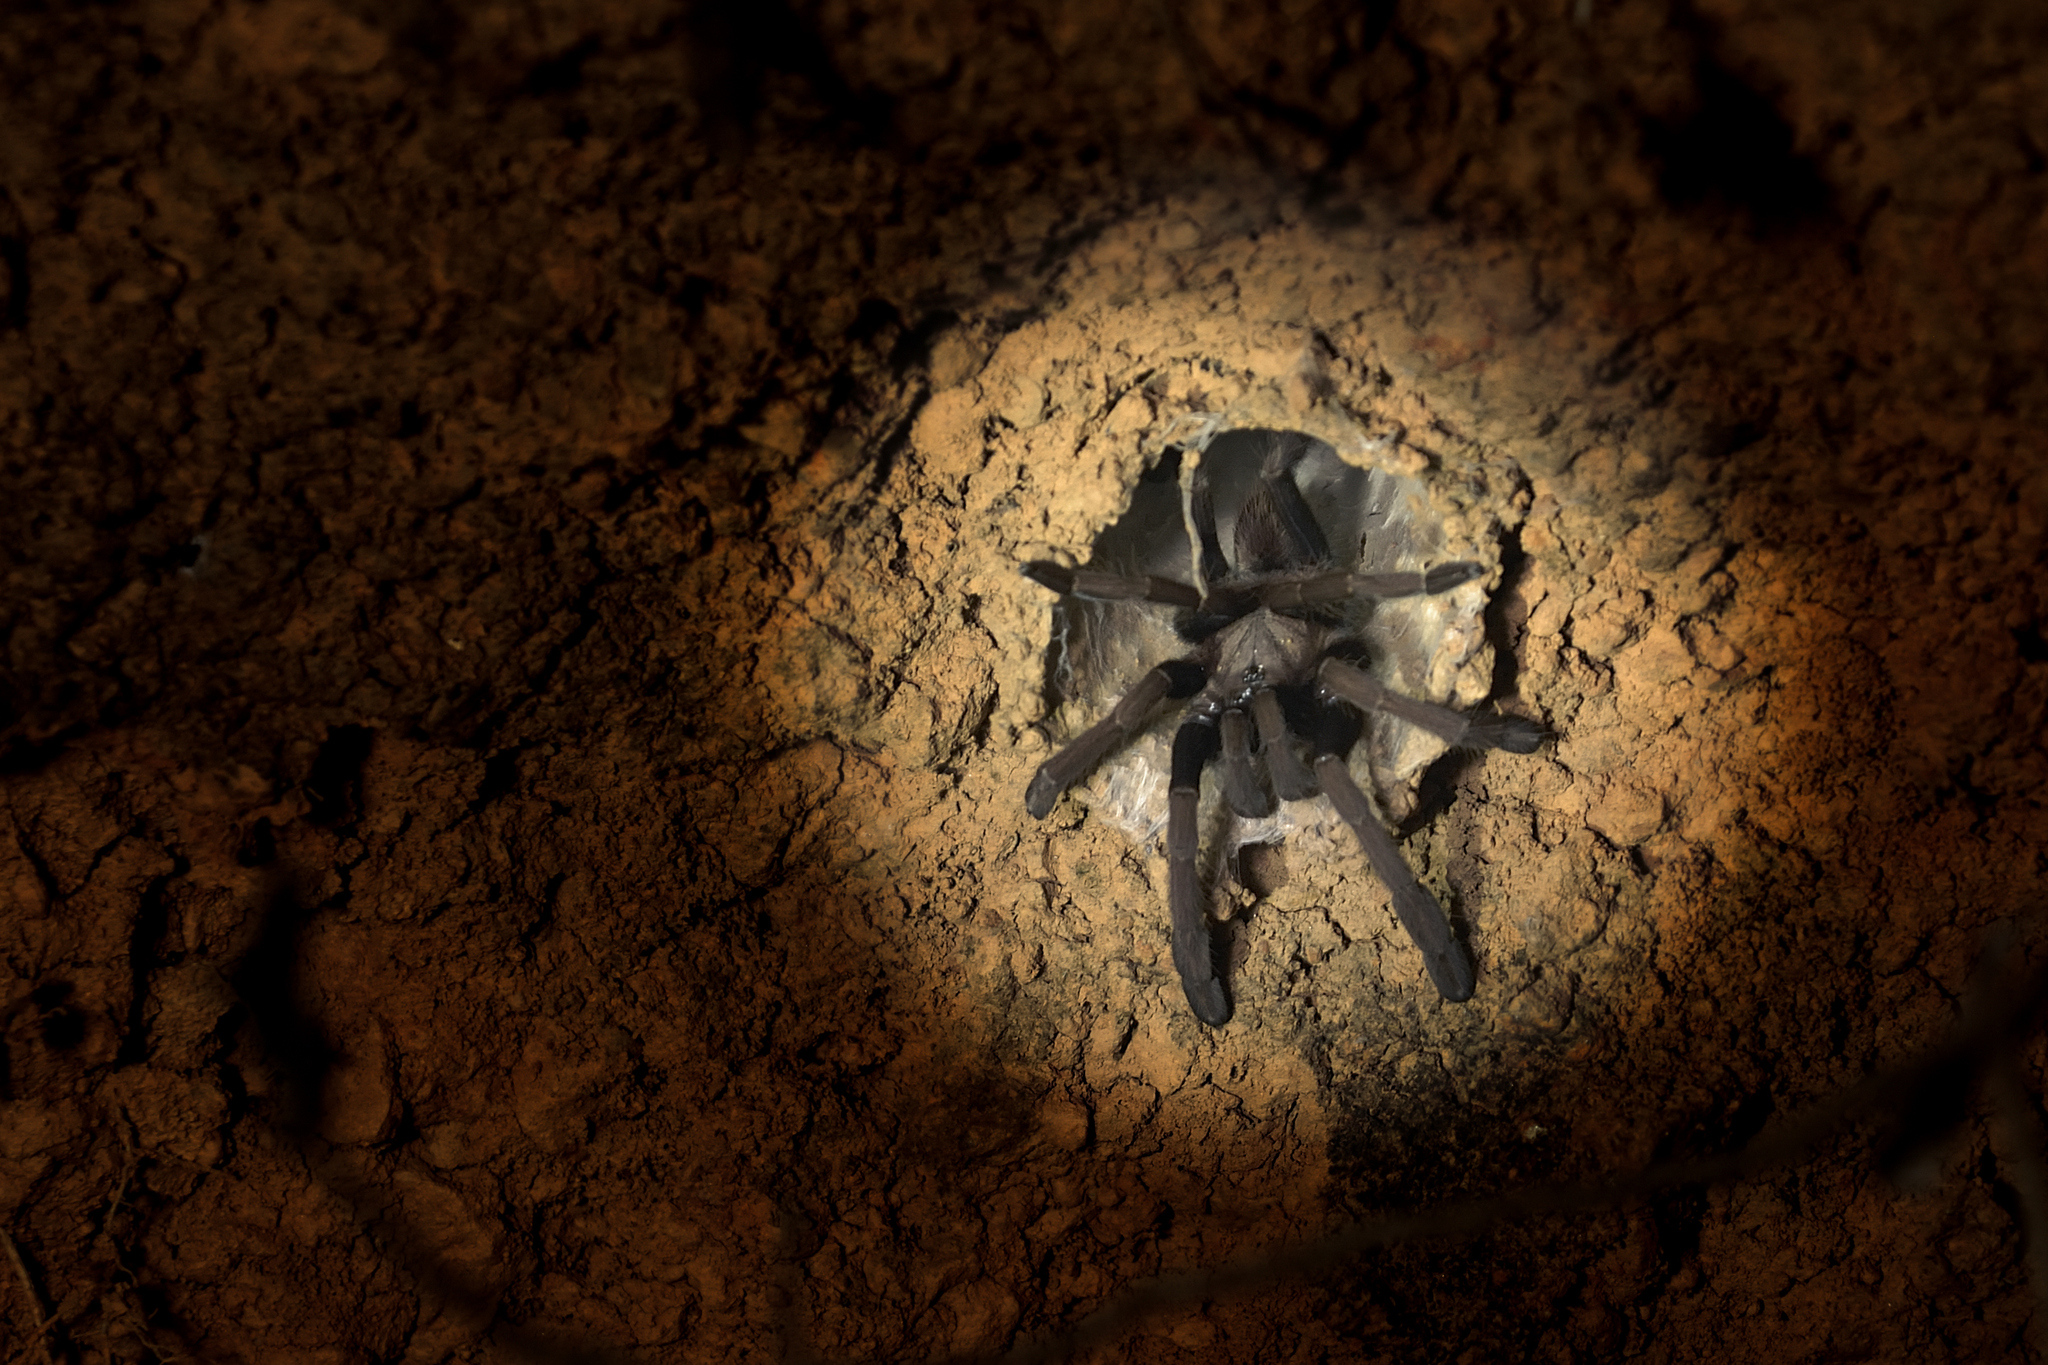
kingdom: Animalia
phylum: Arthropoda
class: Arachnida
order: Araneae
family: Theraphosidae
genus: Thrigmopoeus
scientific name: Thrigmopoeus truculentus
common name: Karwar large burrowing spider
